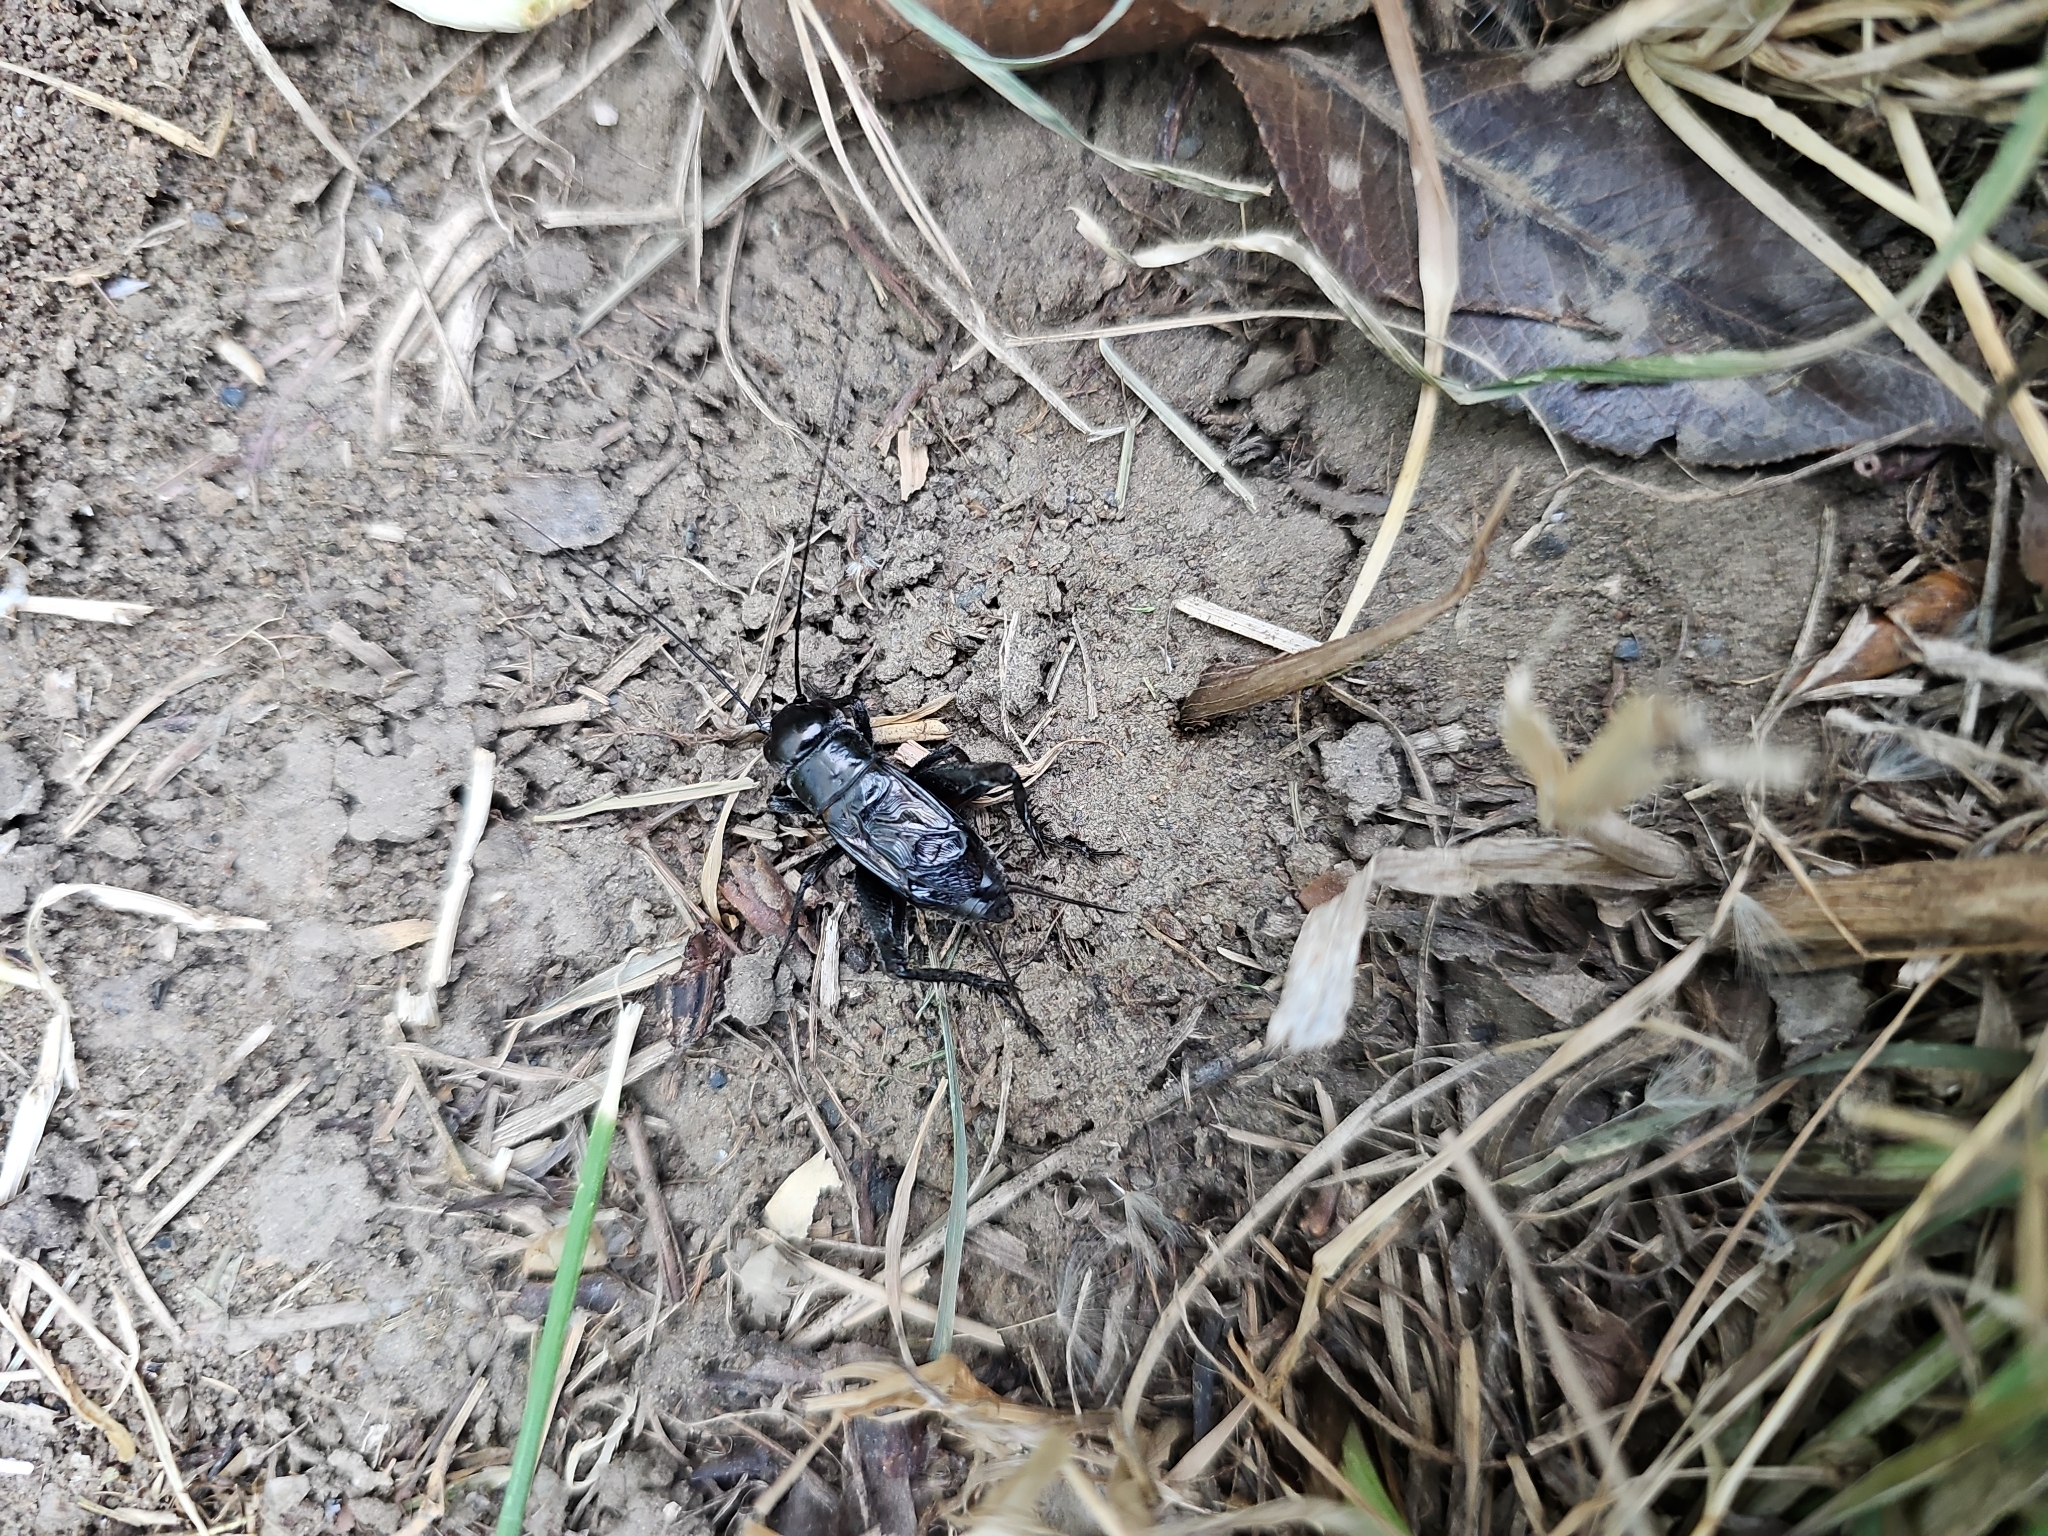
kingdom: Animalia
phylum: Arthropoda
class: Insecta
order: Orthoptera
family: Gryllidae
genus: Gryllus
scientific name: Gryllus veletis
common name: Spring field cricket
